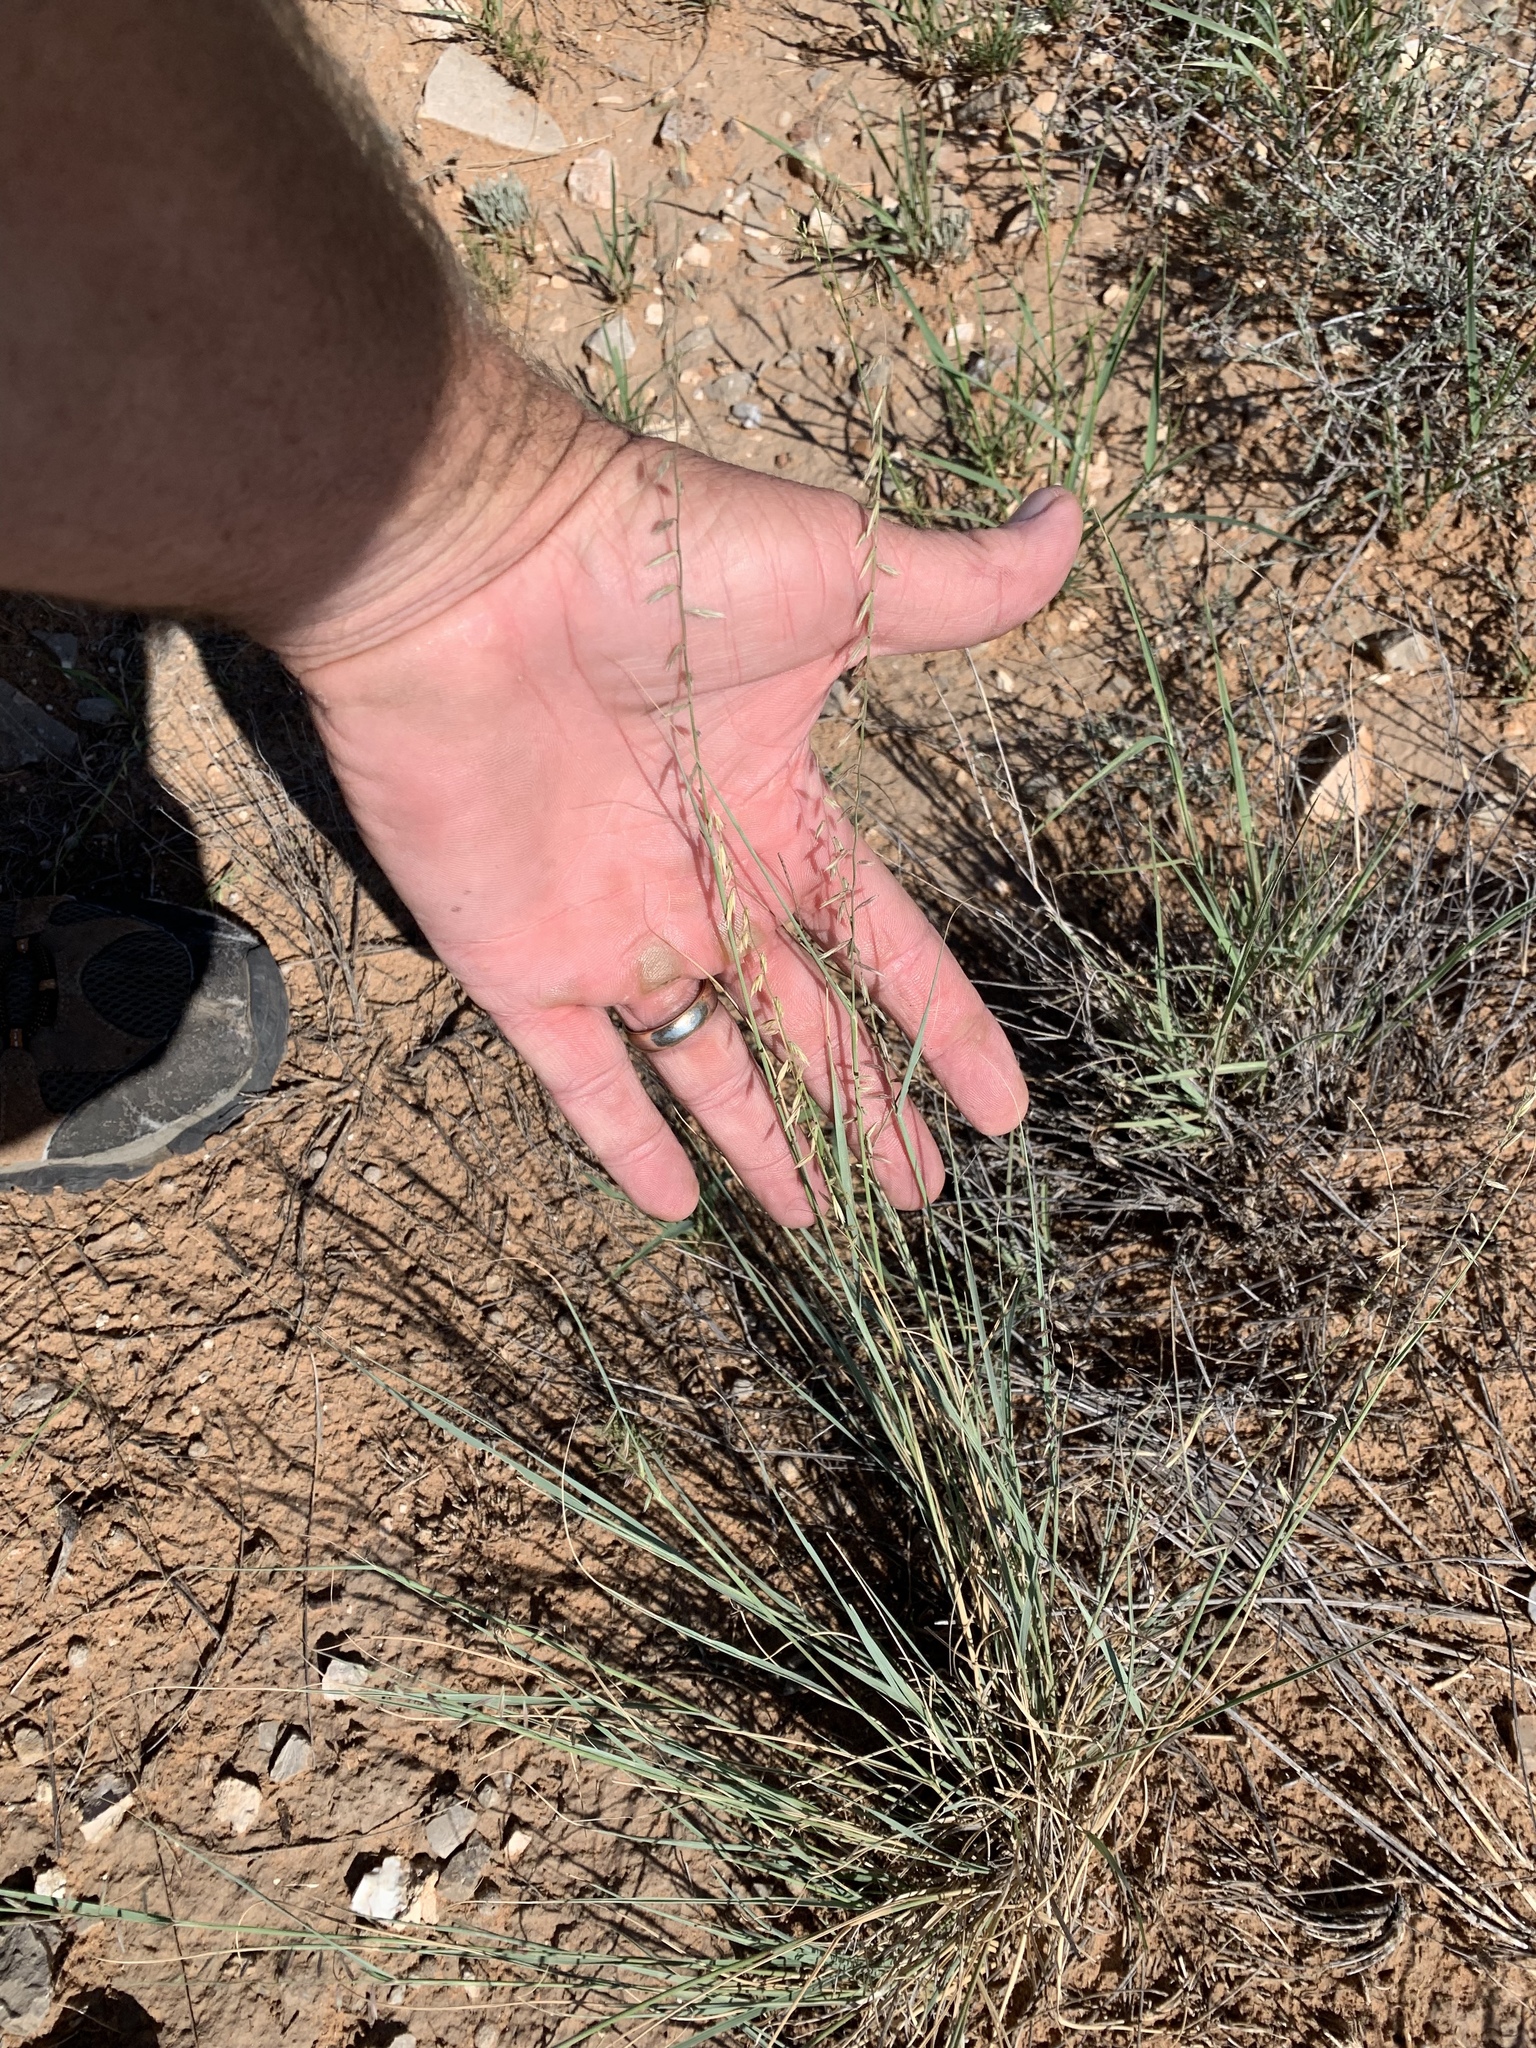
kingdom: Plantae
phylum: Tracheophyta
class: Liliopsida
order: Poales
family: Poaceae
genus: Bouteloua
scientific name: Bouteloua curtipendula
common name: Side-oats grama
